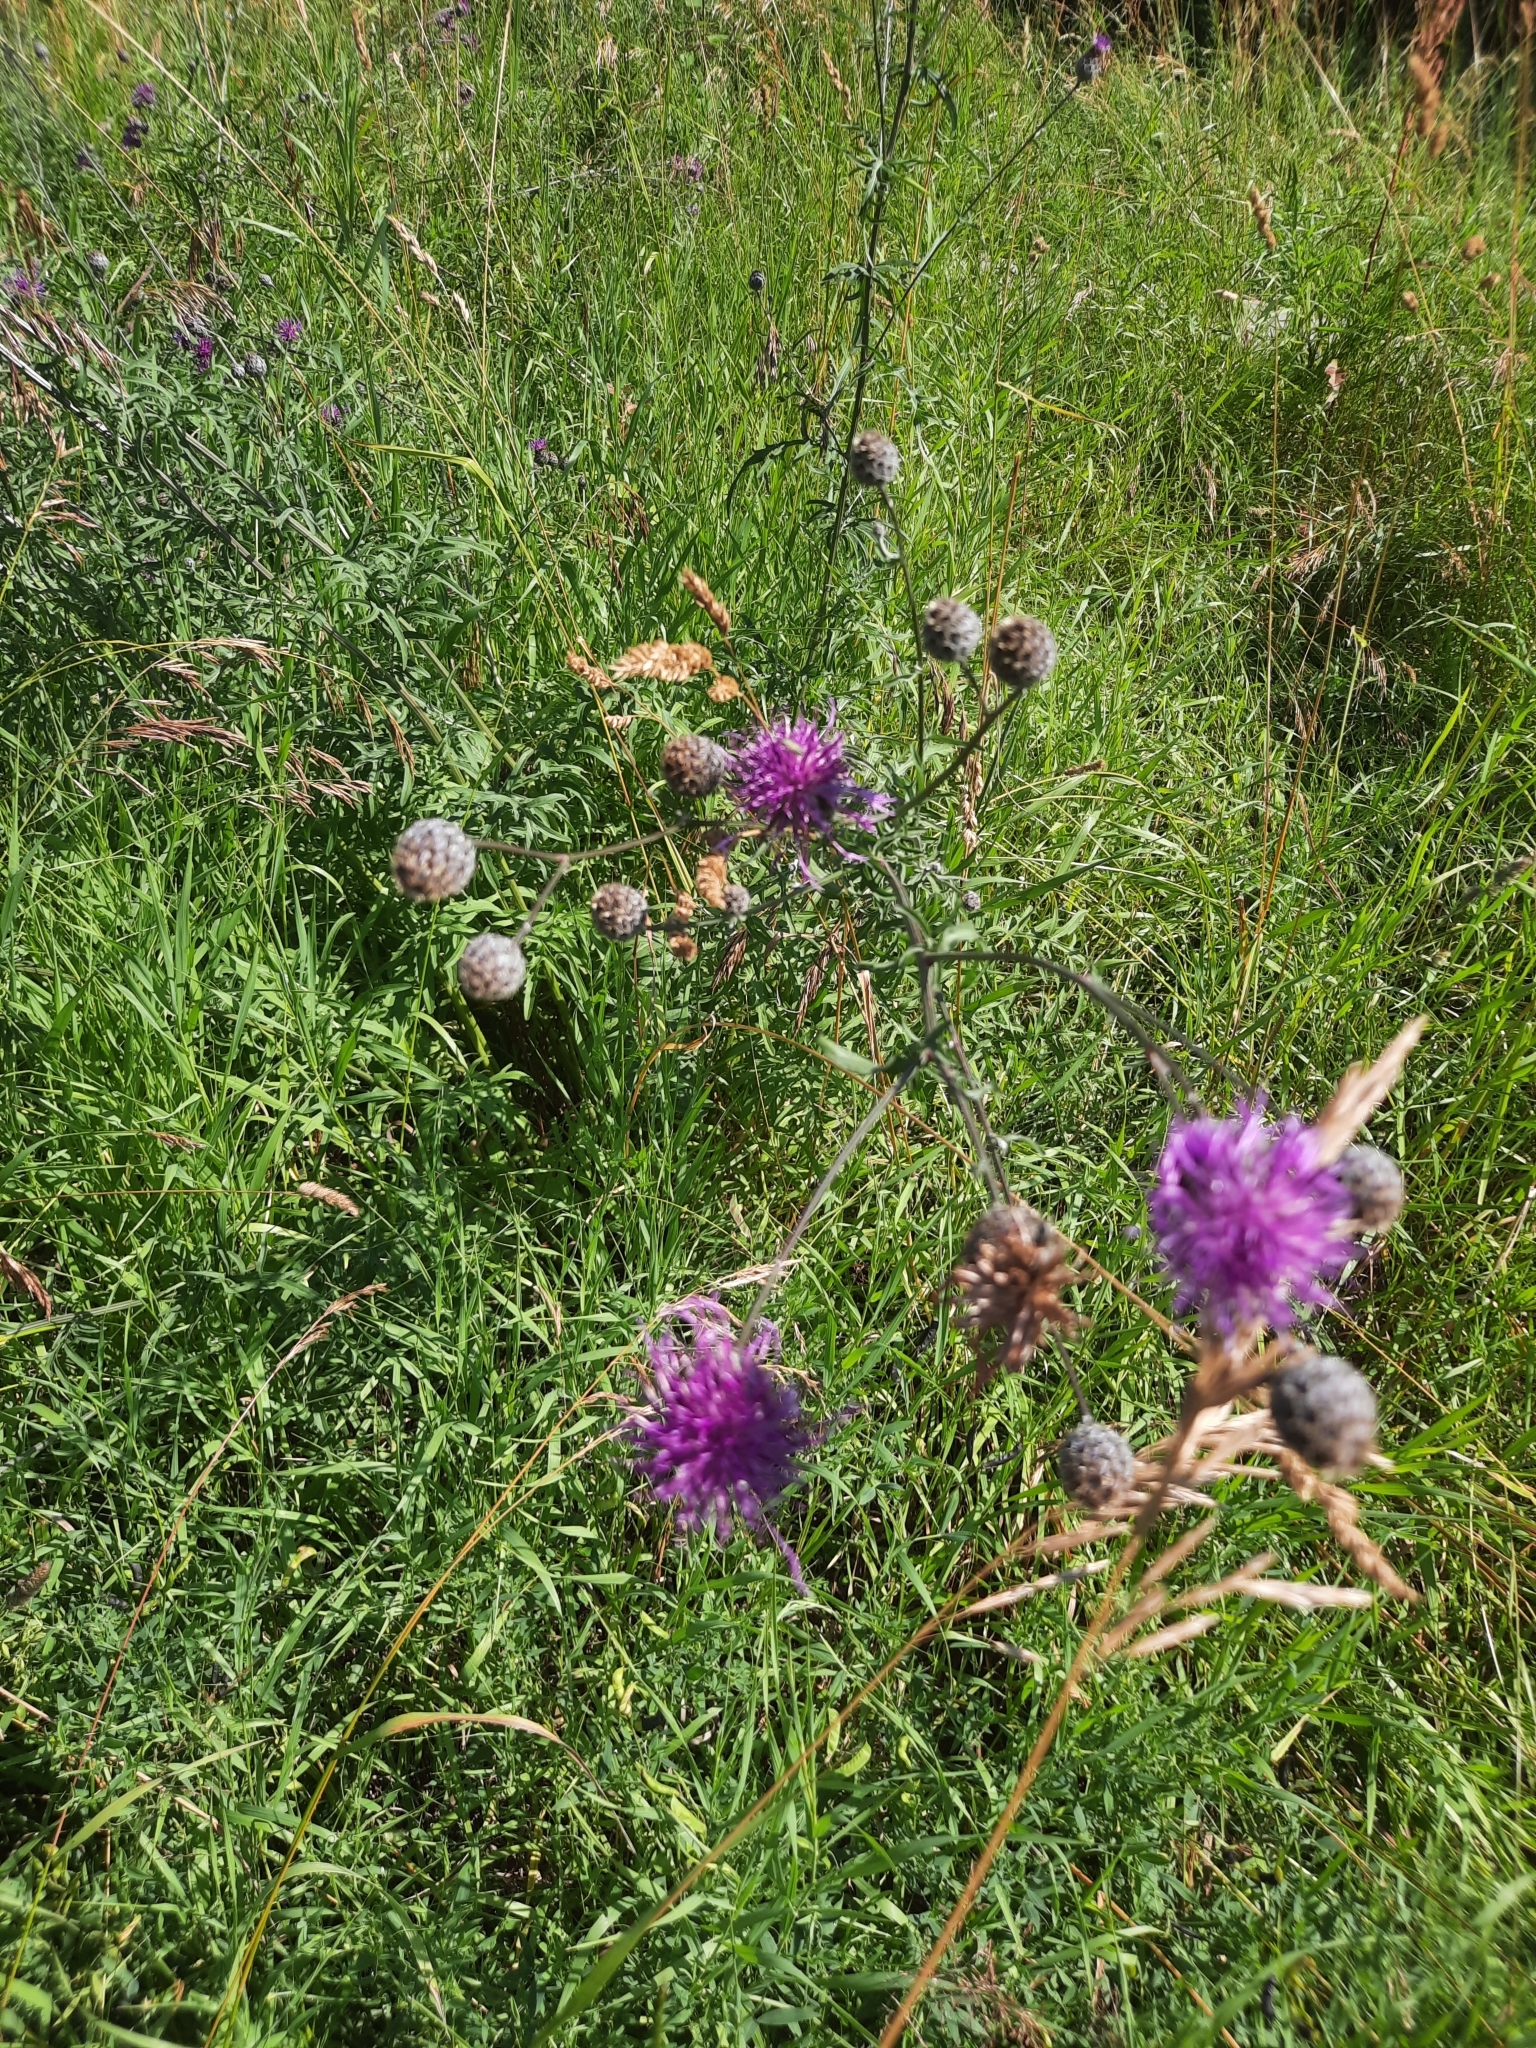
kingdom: Plantae
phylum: Tracheophyta
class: Magnoliopsida
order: Asterales
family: Asteraceae
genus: Centaurea
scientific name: Centaurea scabiosa
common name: Greater knapweed
